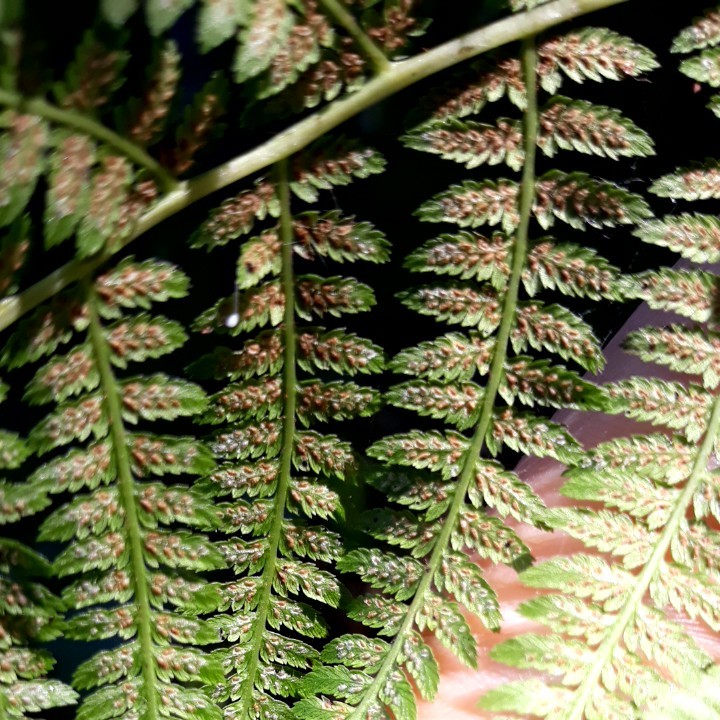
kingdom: Plantae
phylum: Tracheophyta
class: Polypodiopsida
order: Polypodiales
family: Athyriaceae
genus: Athyrium
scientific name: Athyrium filix-femina
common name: Lady fern
